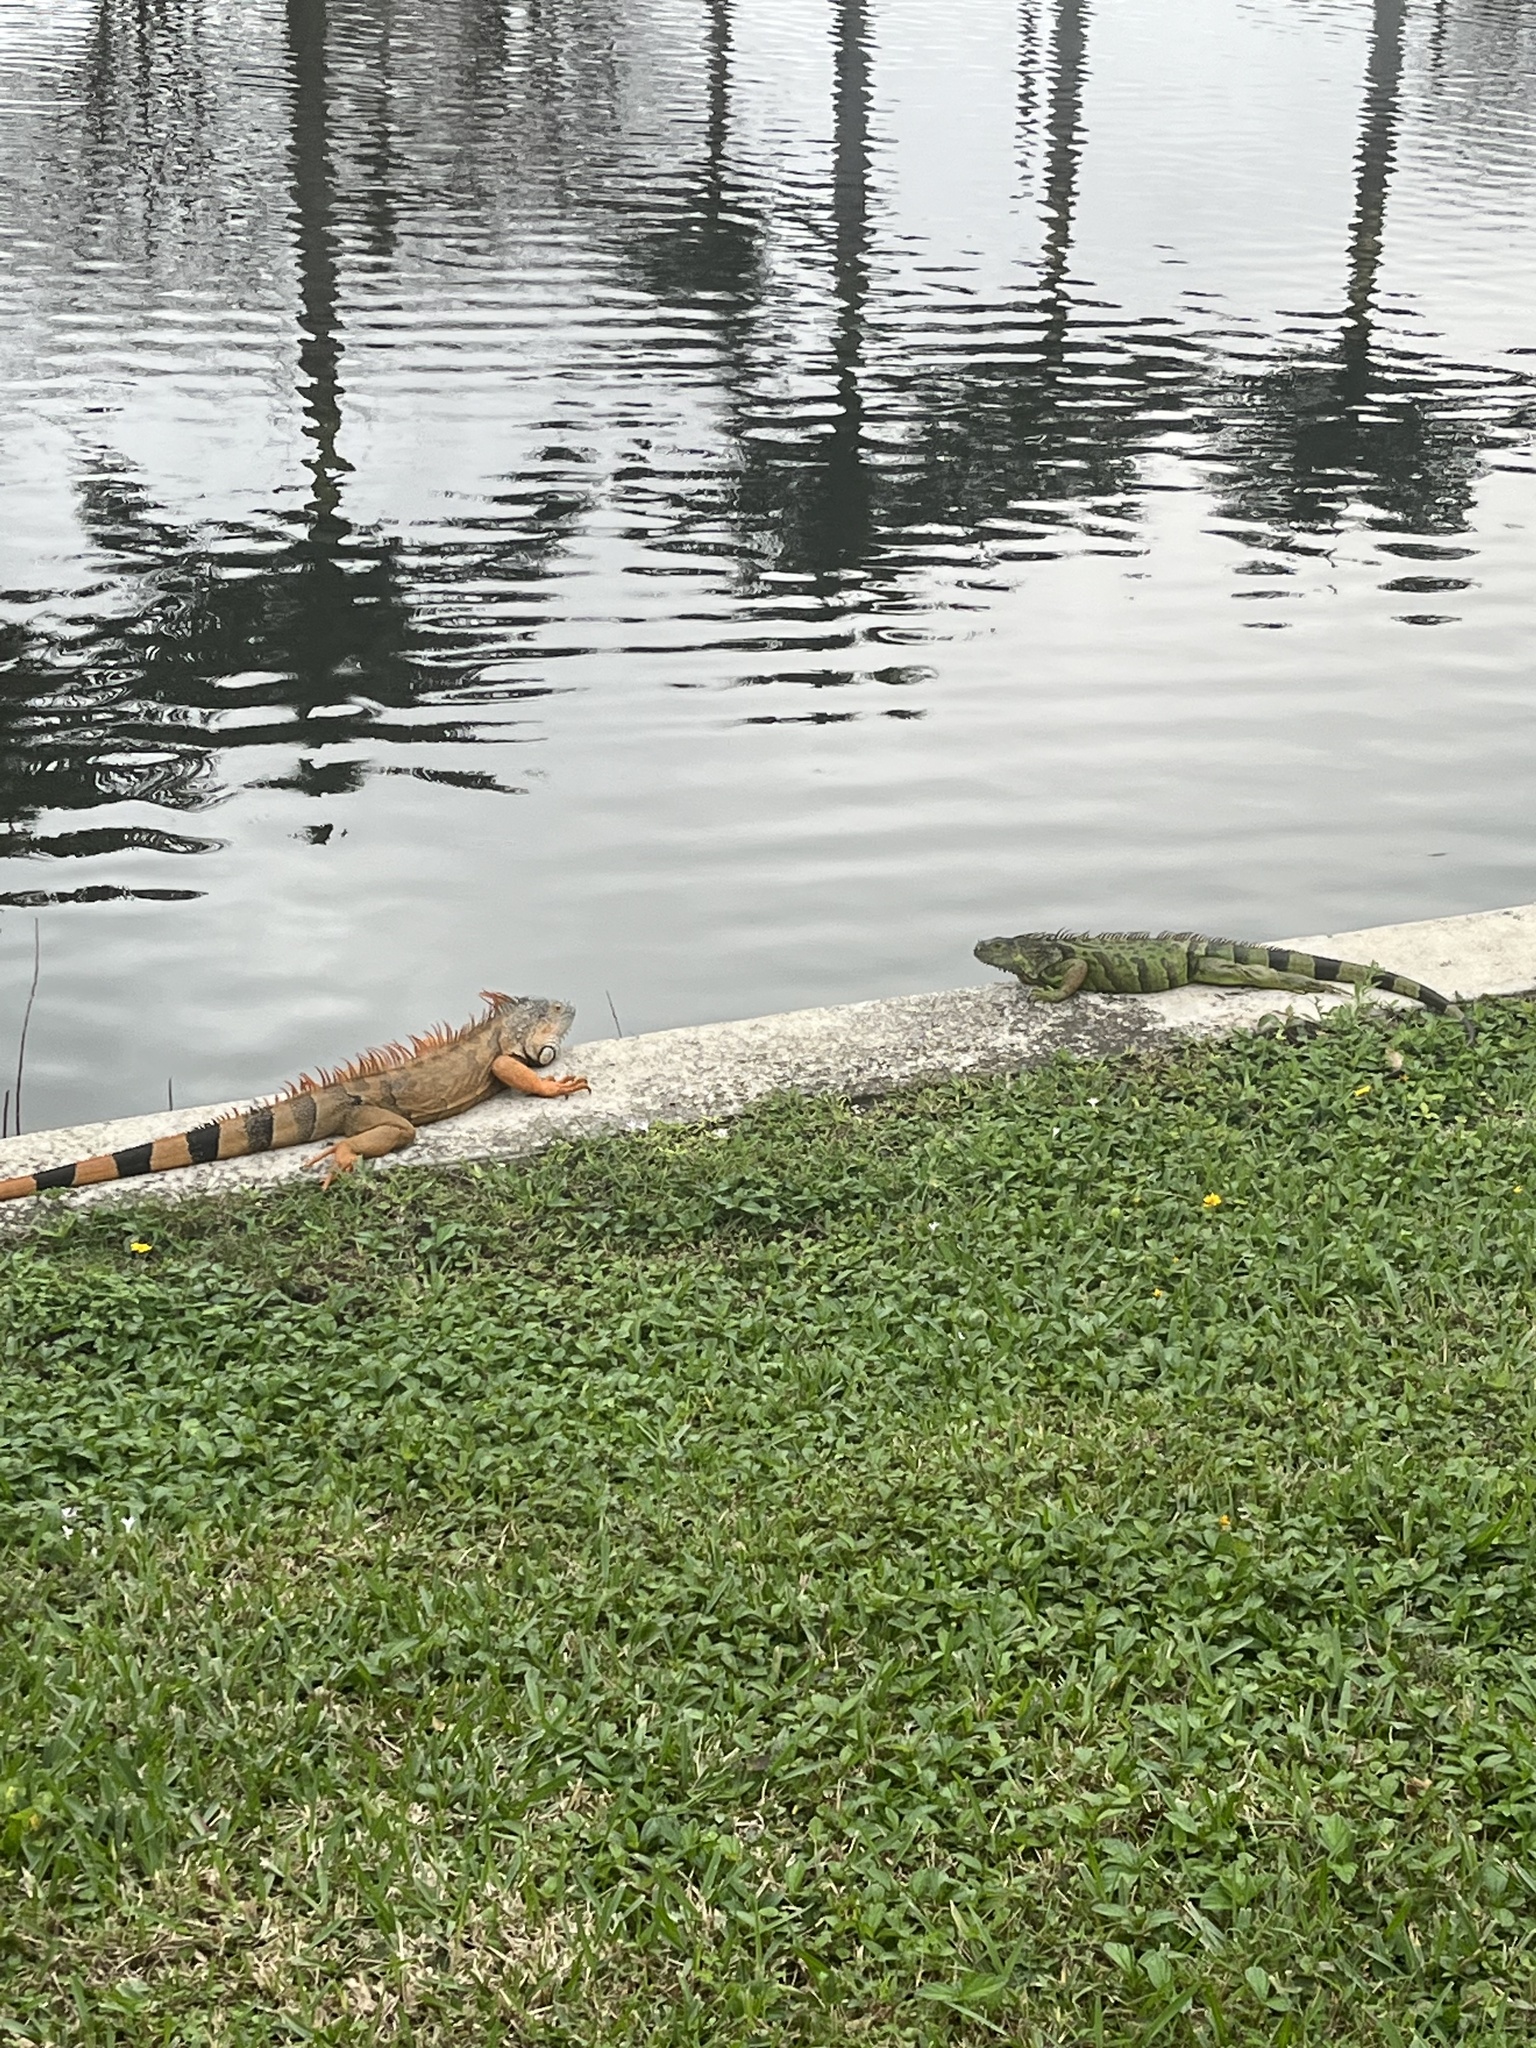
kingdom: Animalia
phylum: Chordata
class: Squamata
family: Iguanidae
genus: Iguana
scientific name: Iguana iguana
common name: Green iguana
